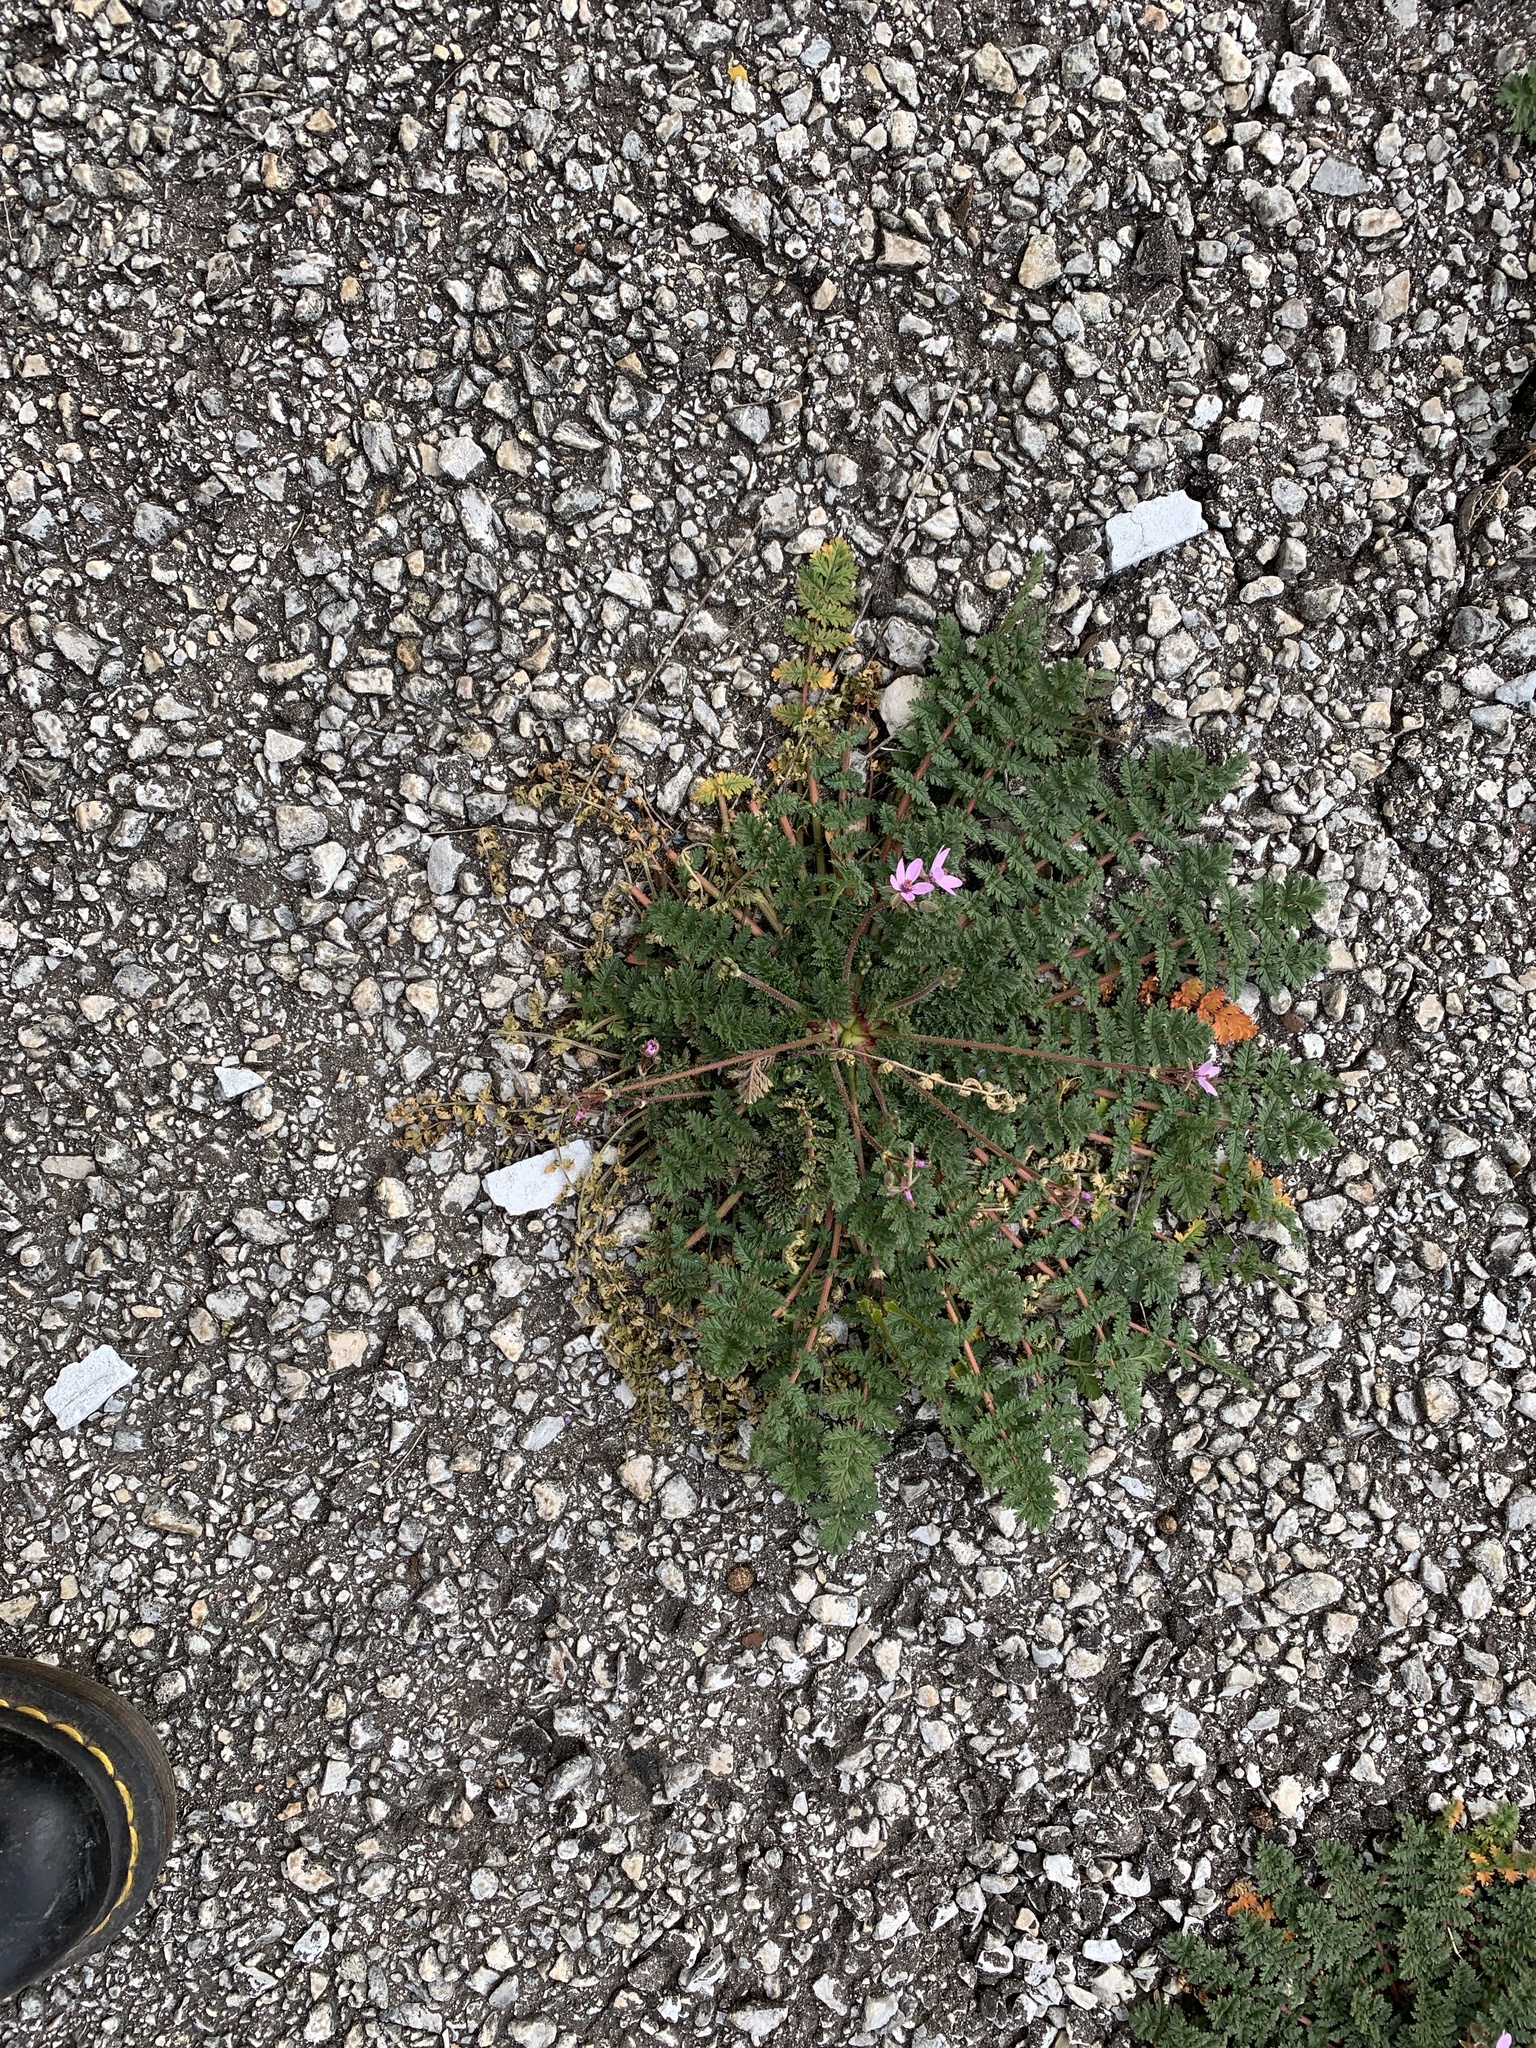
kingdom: Plantae
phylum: Tracheophyta
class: Magnoliopsida
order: Geraniales
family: Geraniaceae
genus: Erodium
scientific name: Erodium cicutarium
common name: Common stork's-bill
